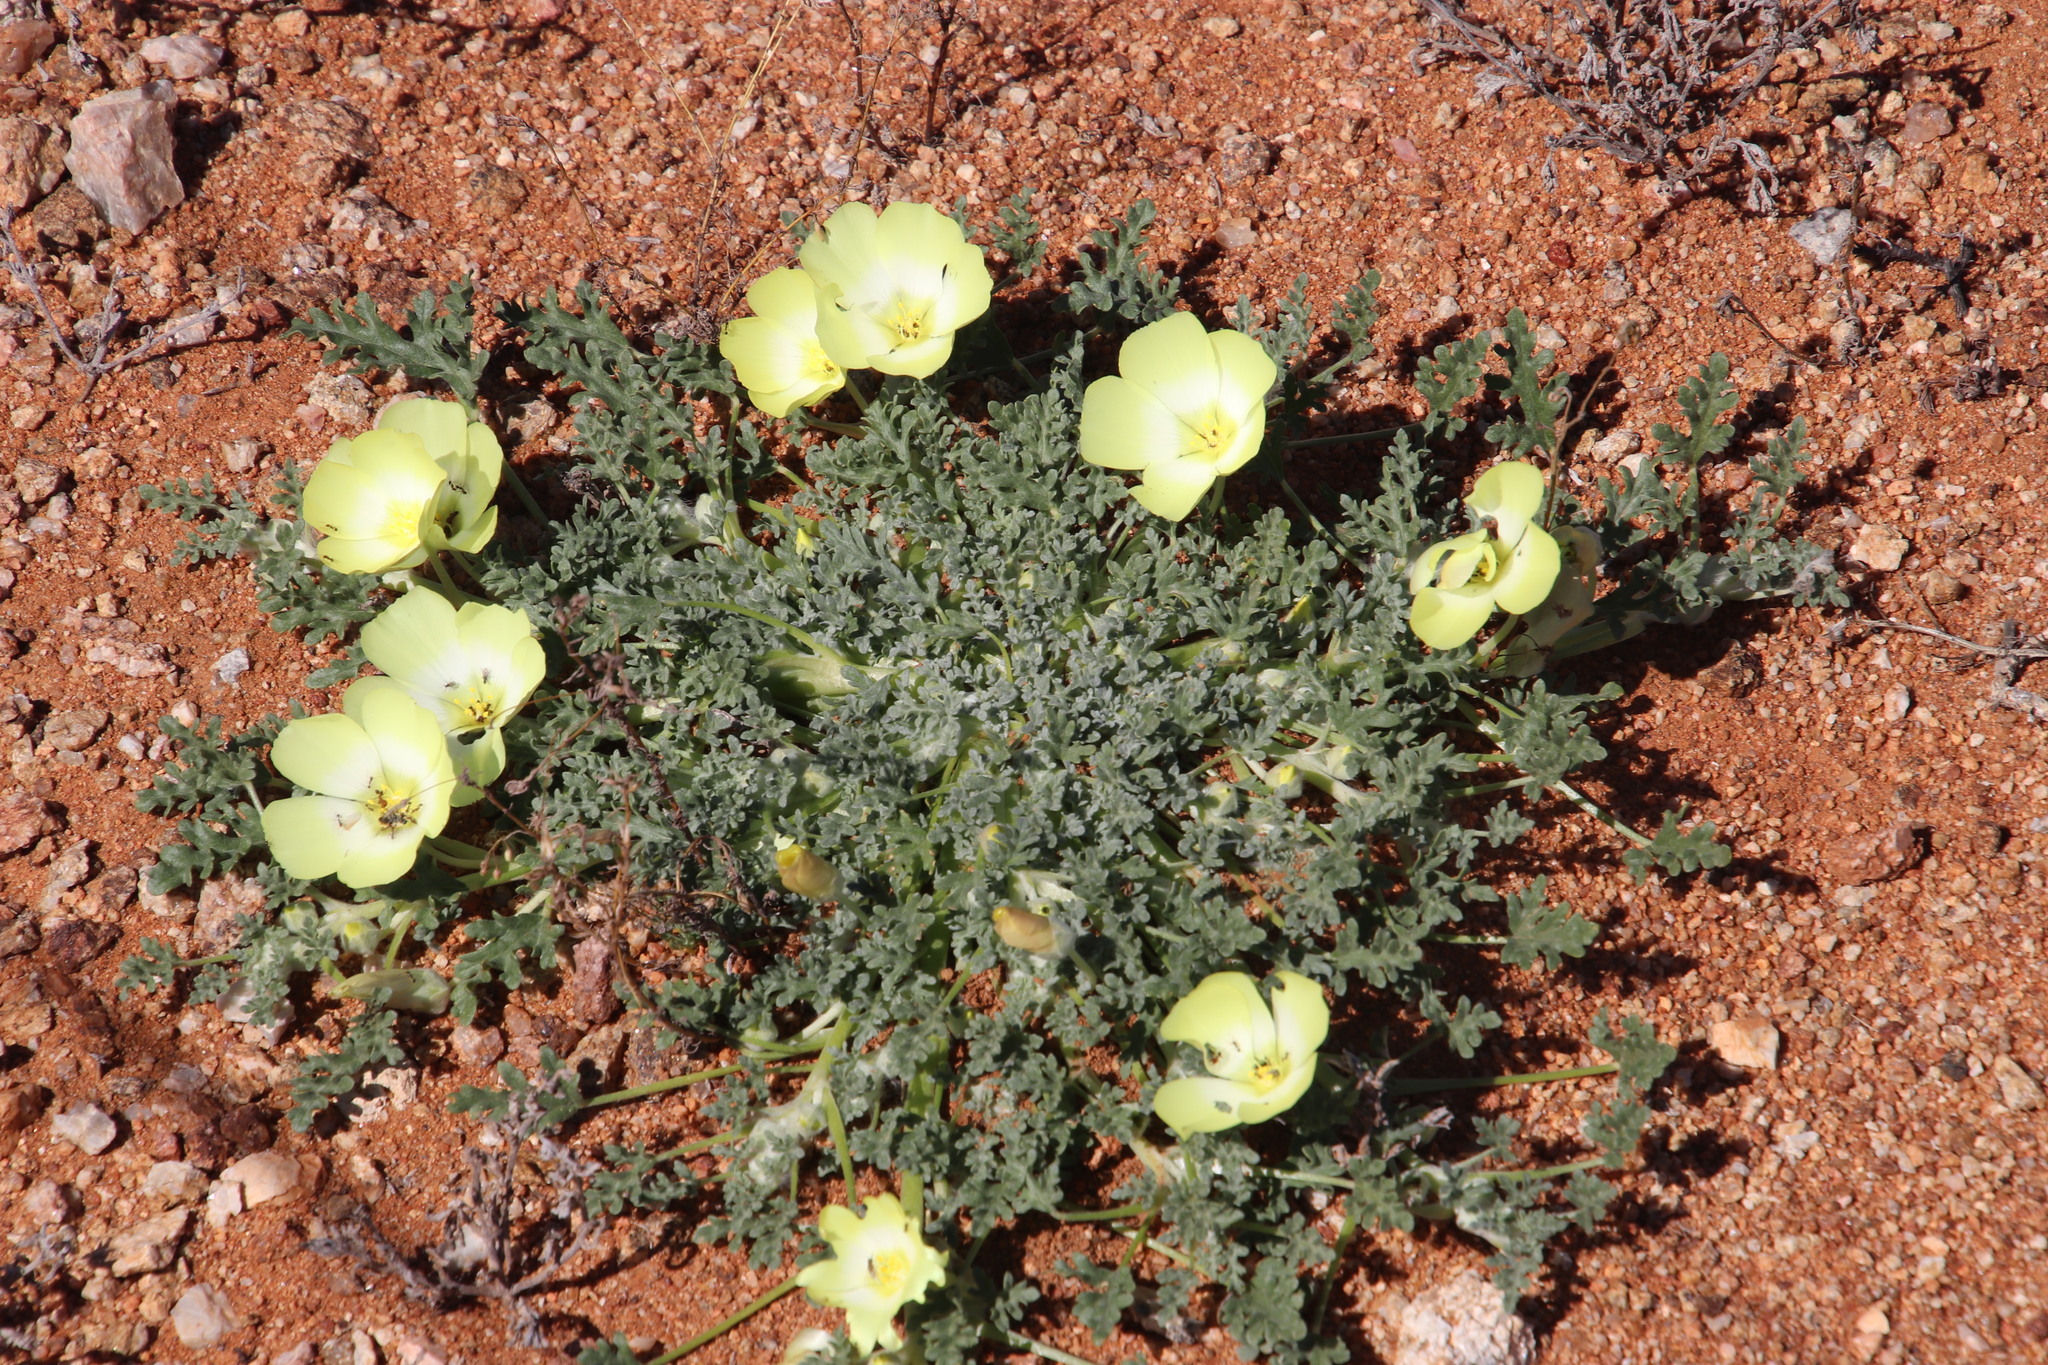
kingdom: Plantae
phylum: Tracheophyta
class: Magnoliopsida
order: Malvales
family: Neuradaceae
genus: Grielum
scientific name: Grielum humifusum
